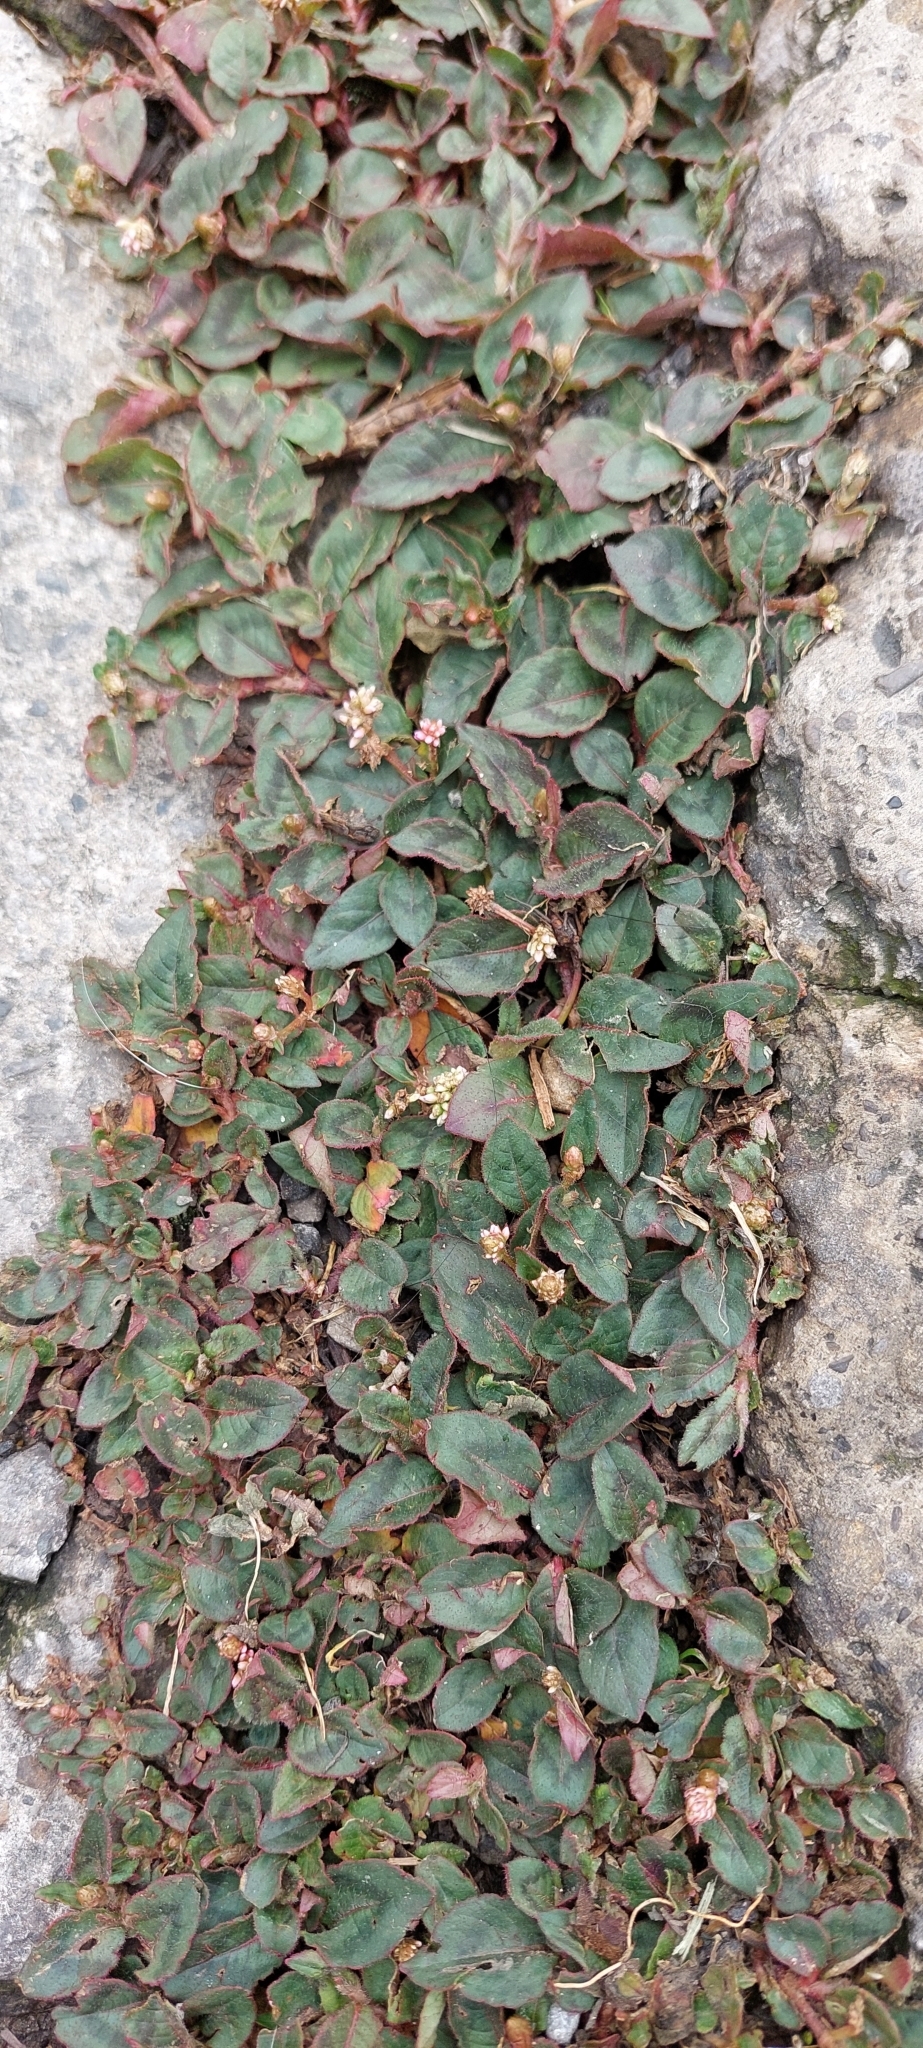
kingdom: Plantae
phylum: Tracheophyta
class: Magnoliopsida
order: Caryophyllales
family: Polygonaceae
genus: Persicaria
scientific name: Persicaria capitata
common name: Pinkhead smartweed
